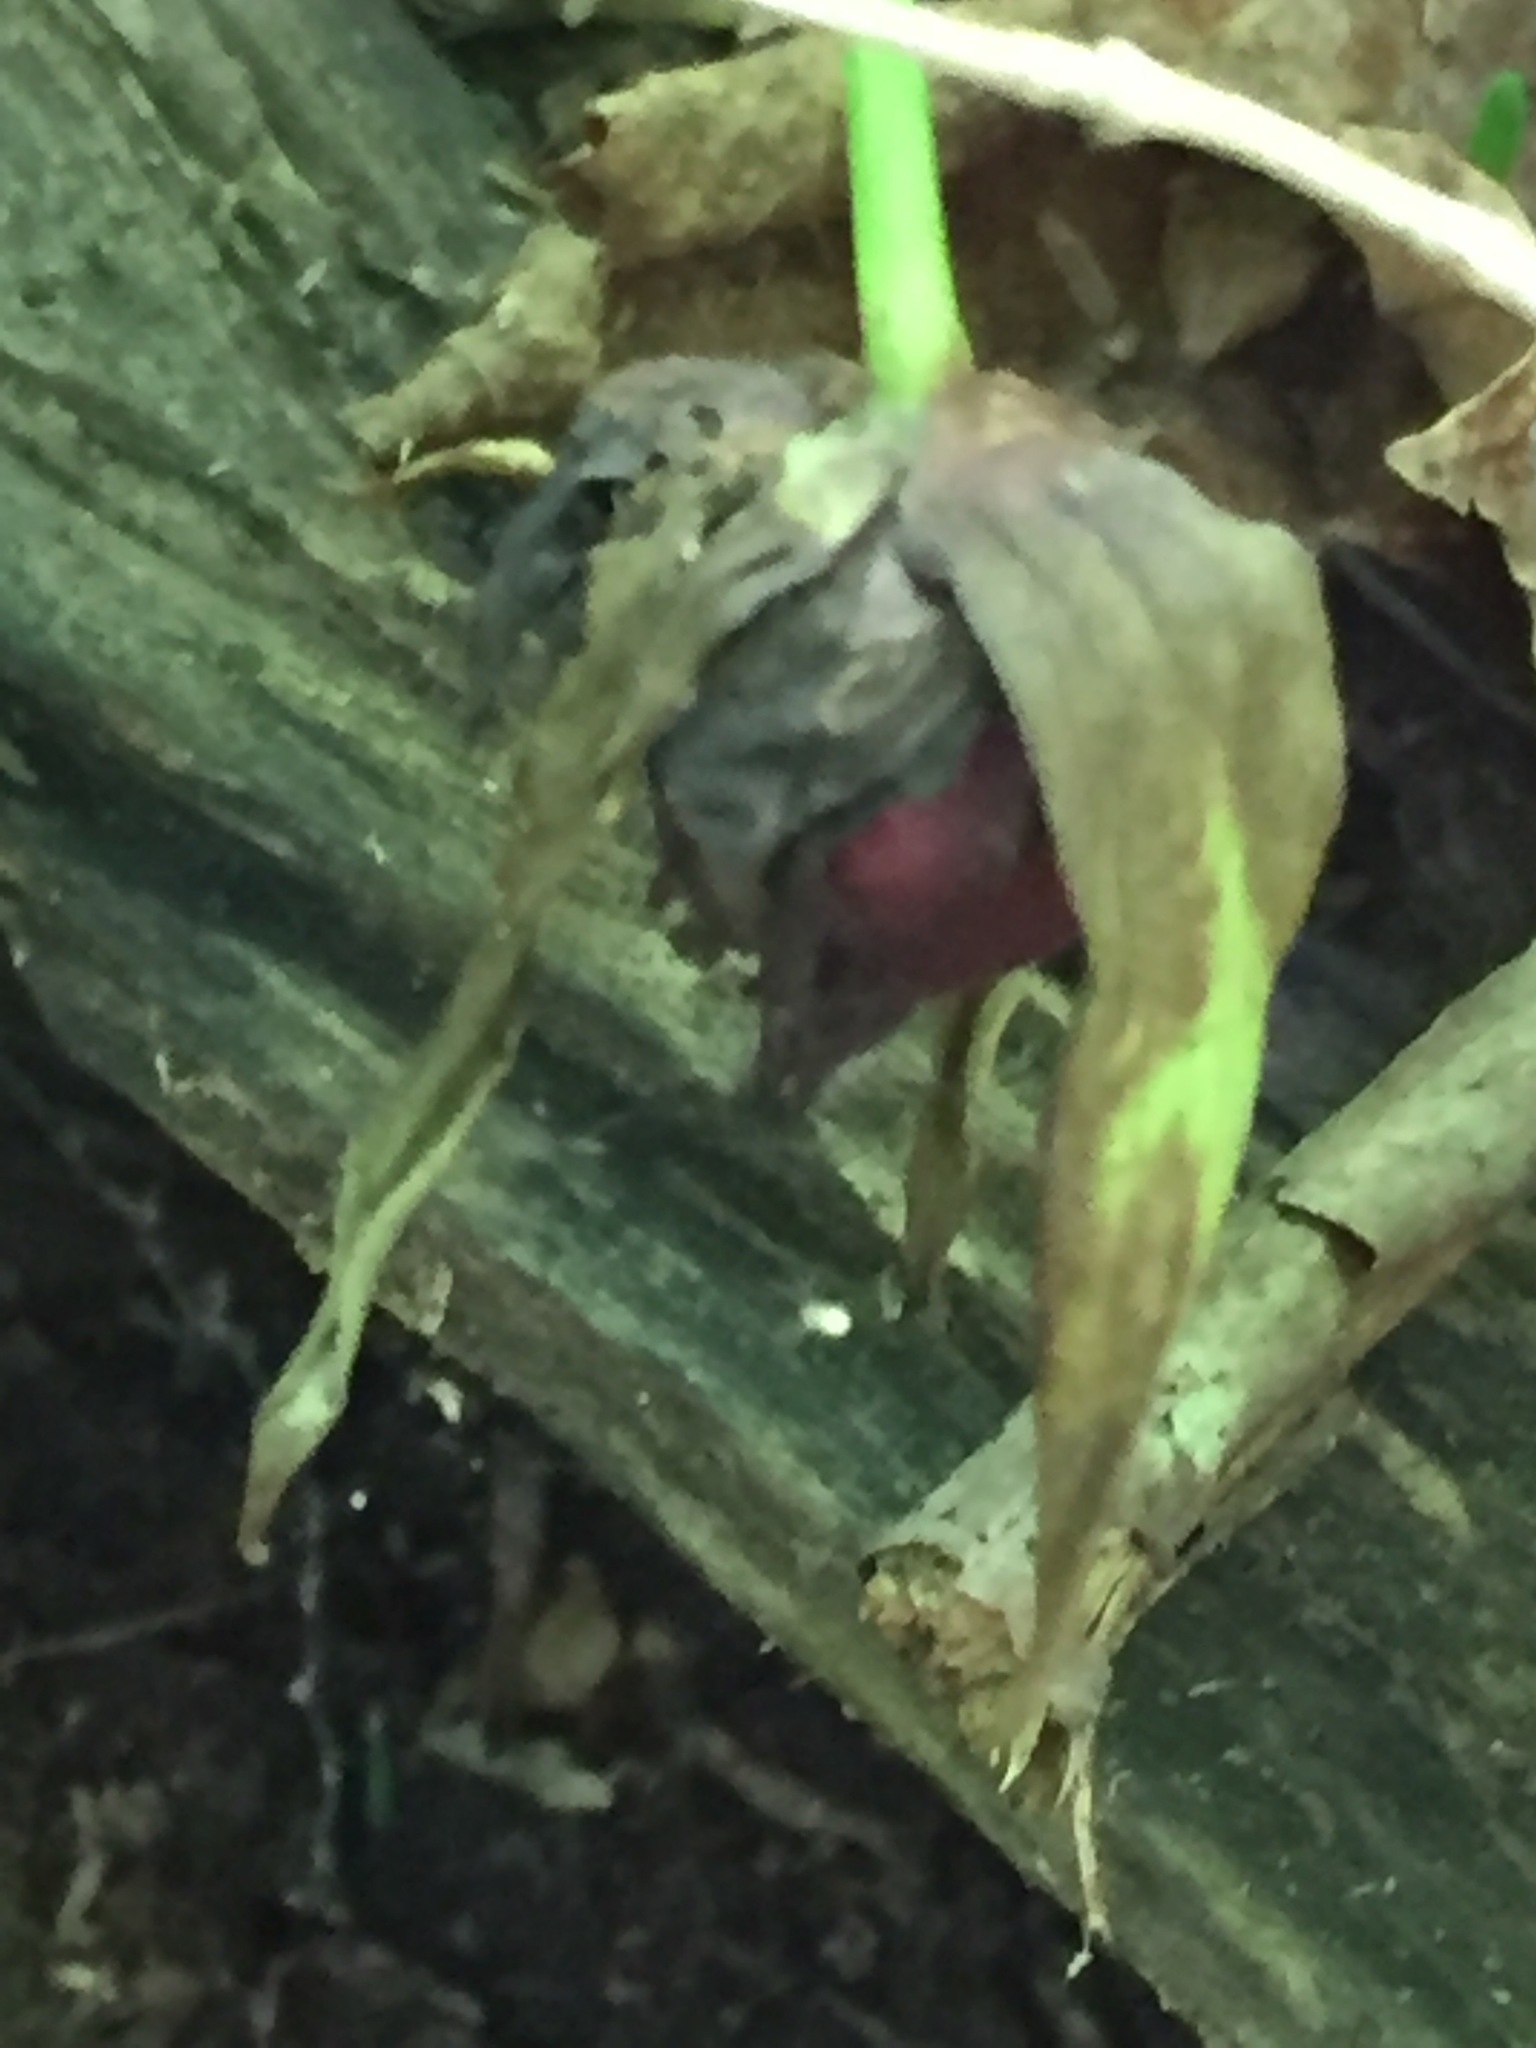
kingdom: Plantae
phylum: Tracheophyta
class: Liliopsida
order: Liliales
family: Melanthiaceae
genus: Trillium
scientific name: Trillium erectum
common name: Purple trillium
